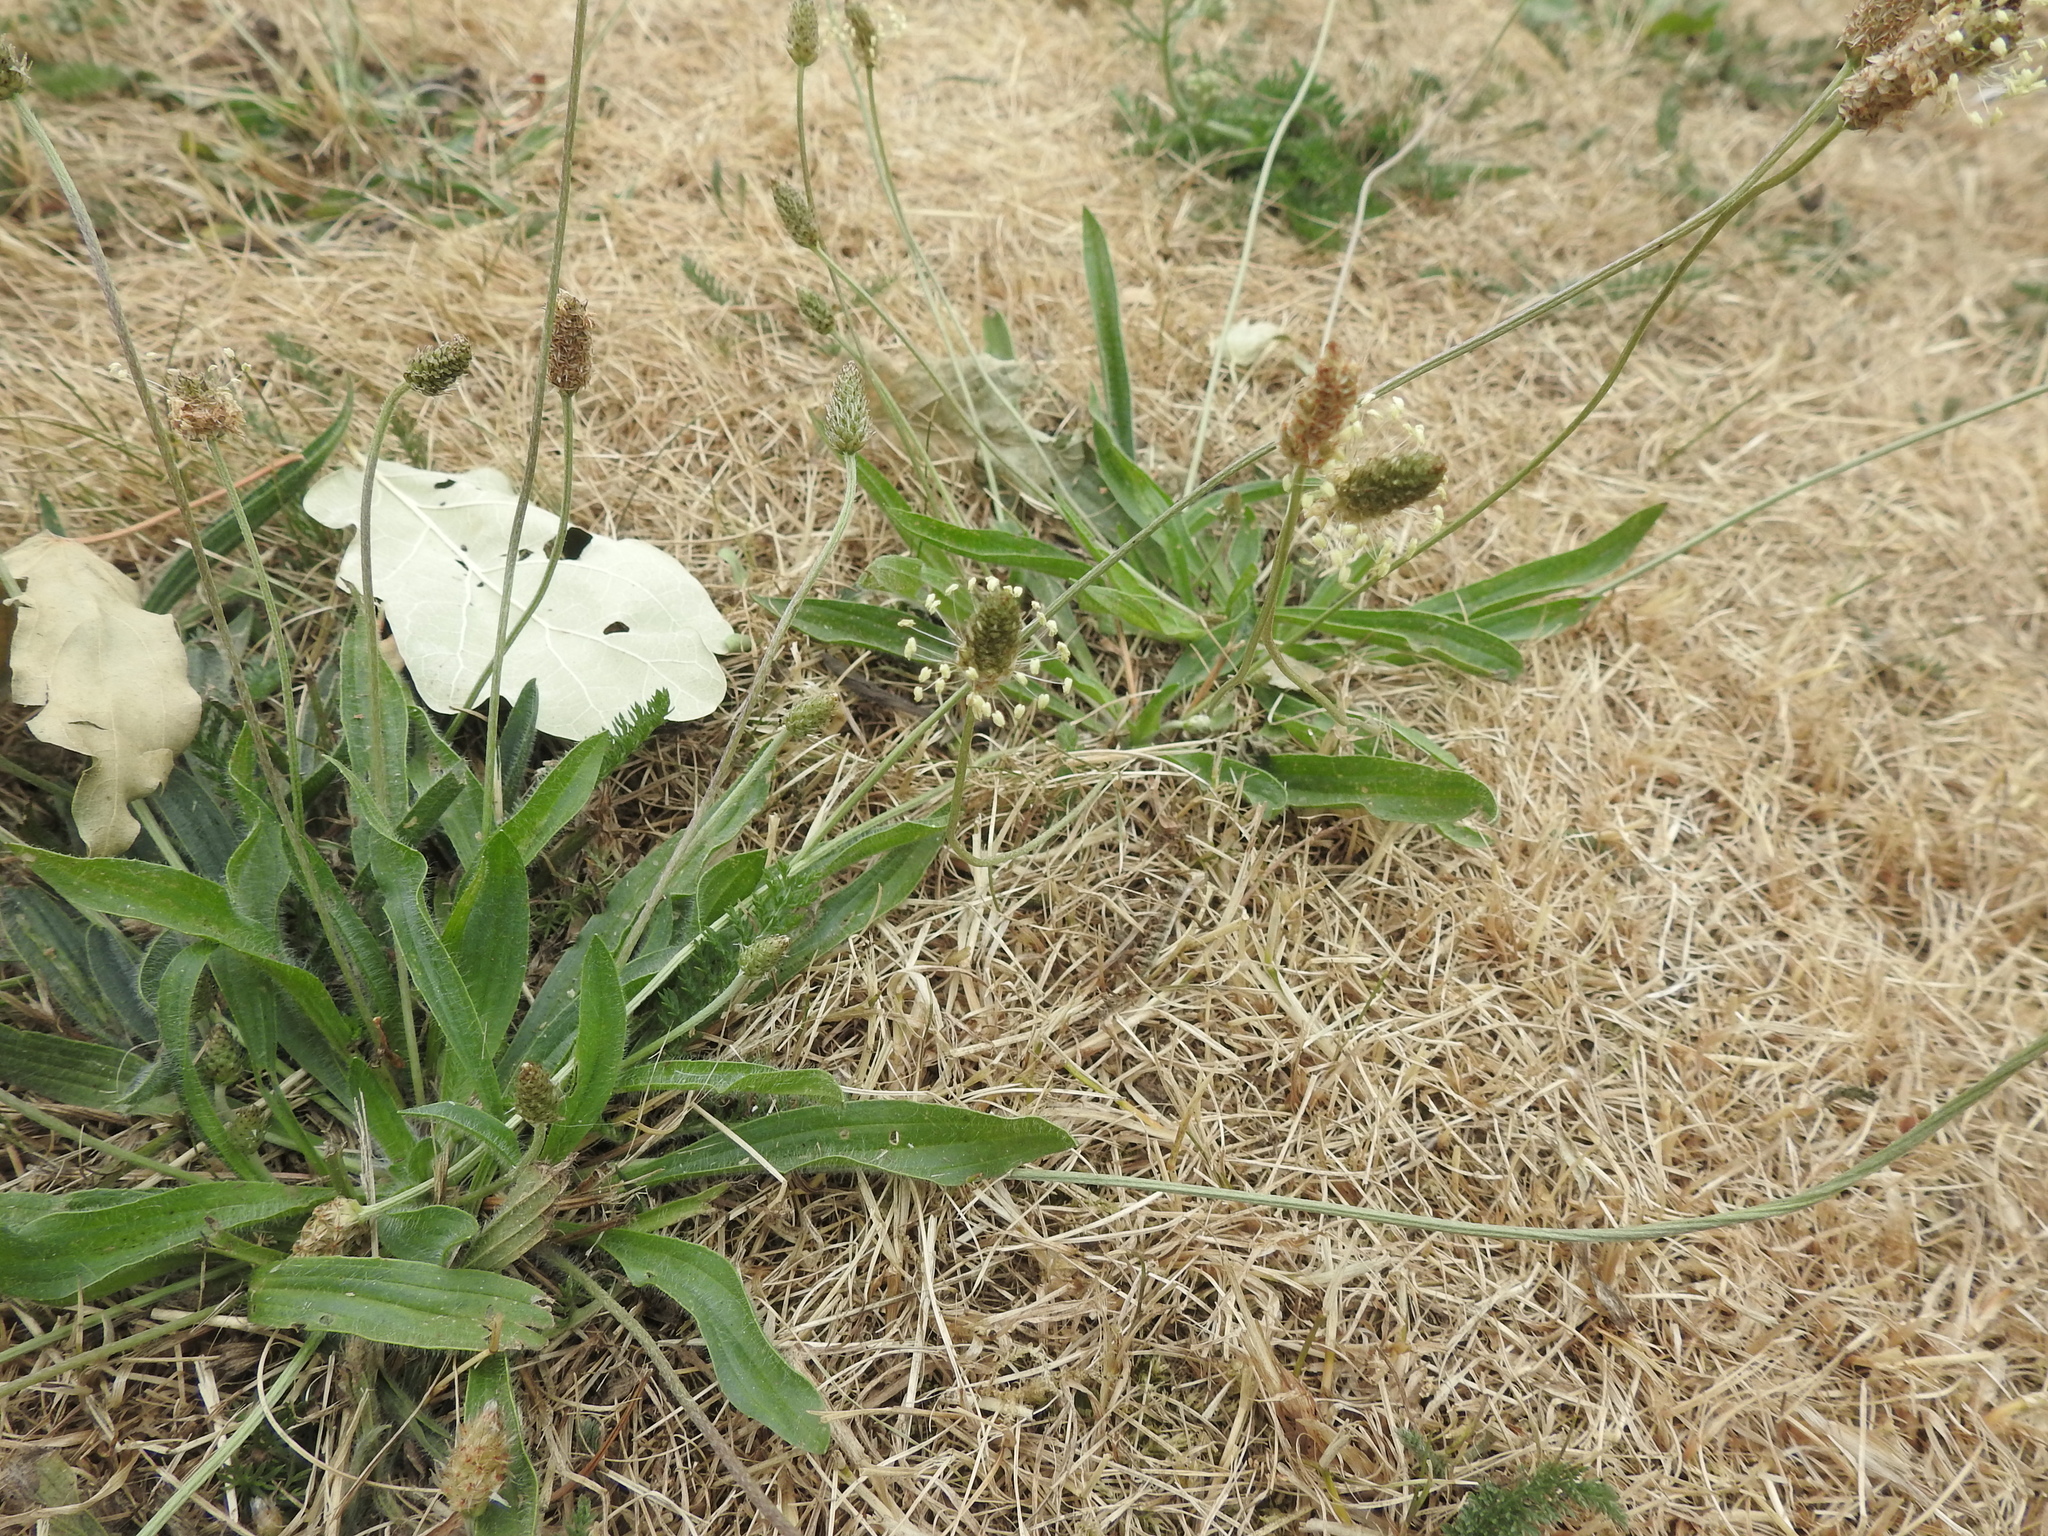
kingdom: Plantae
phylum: Tracheophyta
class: Magnoliopsida
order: Lamiales
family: Plantaginaceae
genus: Plantago
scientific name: Plantago lanceolata
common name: Ribwort plantain
